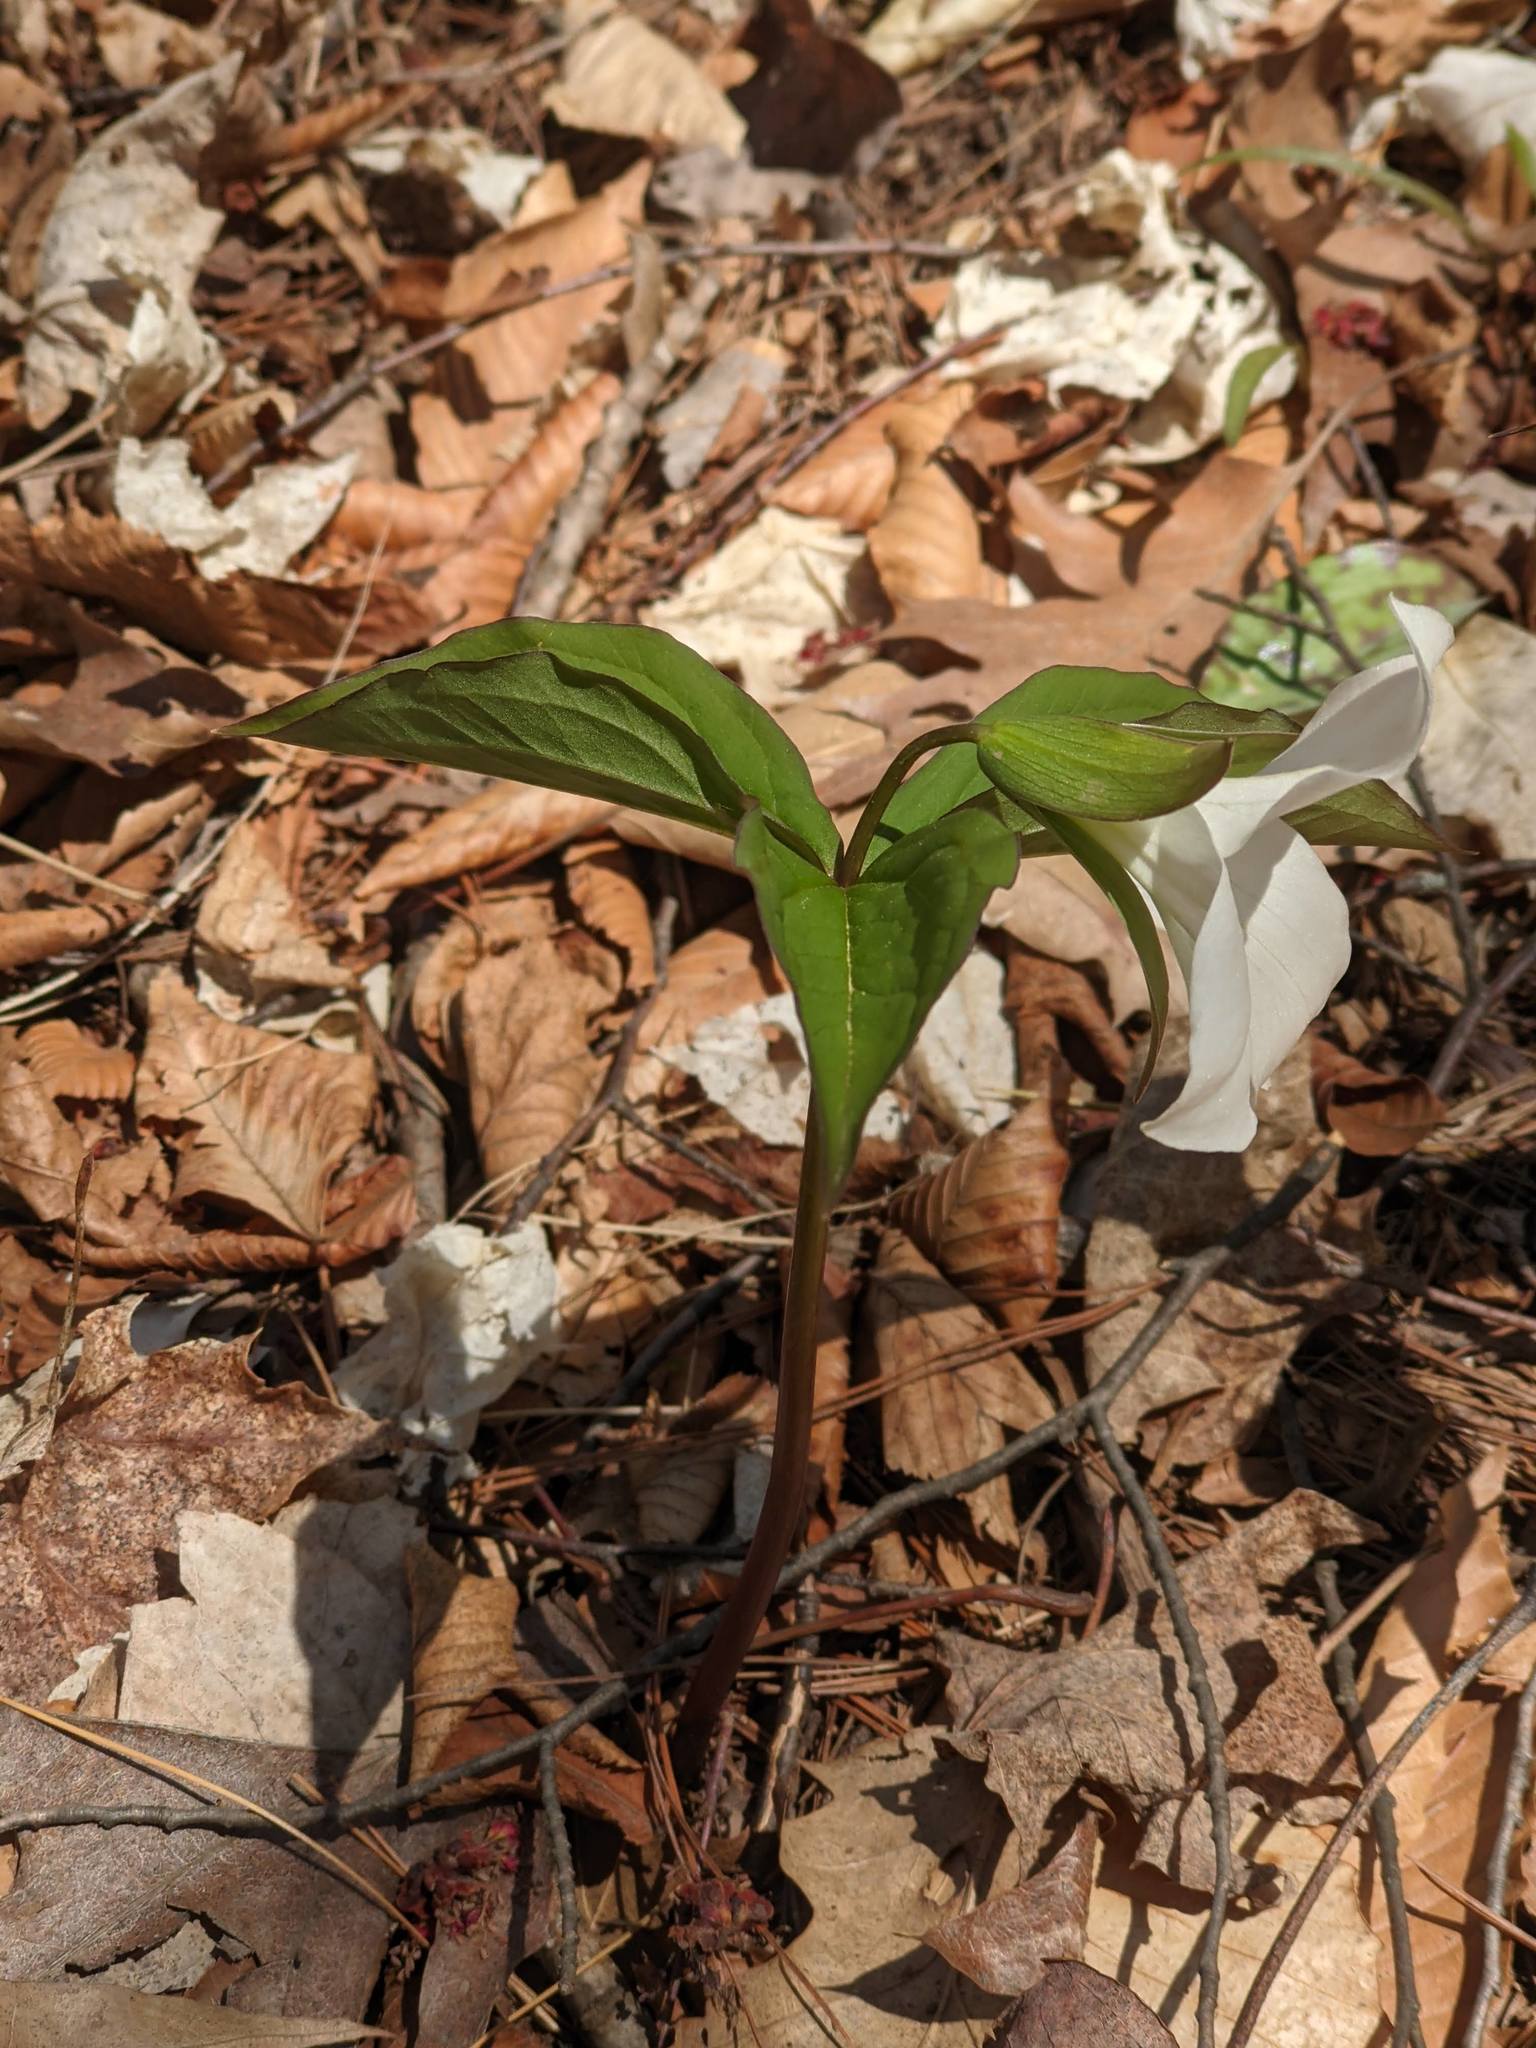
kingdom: Plantae
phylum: Tracheophyta
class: Liliopsida
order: Liliales
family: Melanthiaceae
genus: Trillium
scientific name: Trillium grandiflorum
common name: Great white trillium
